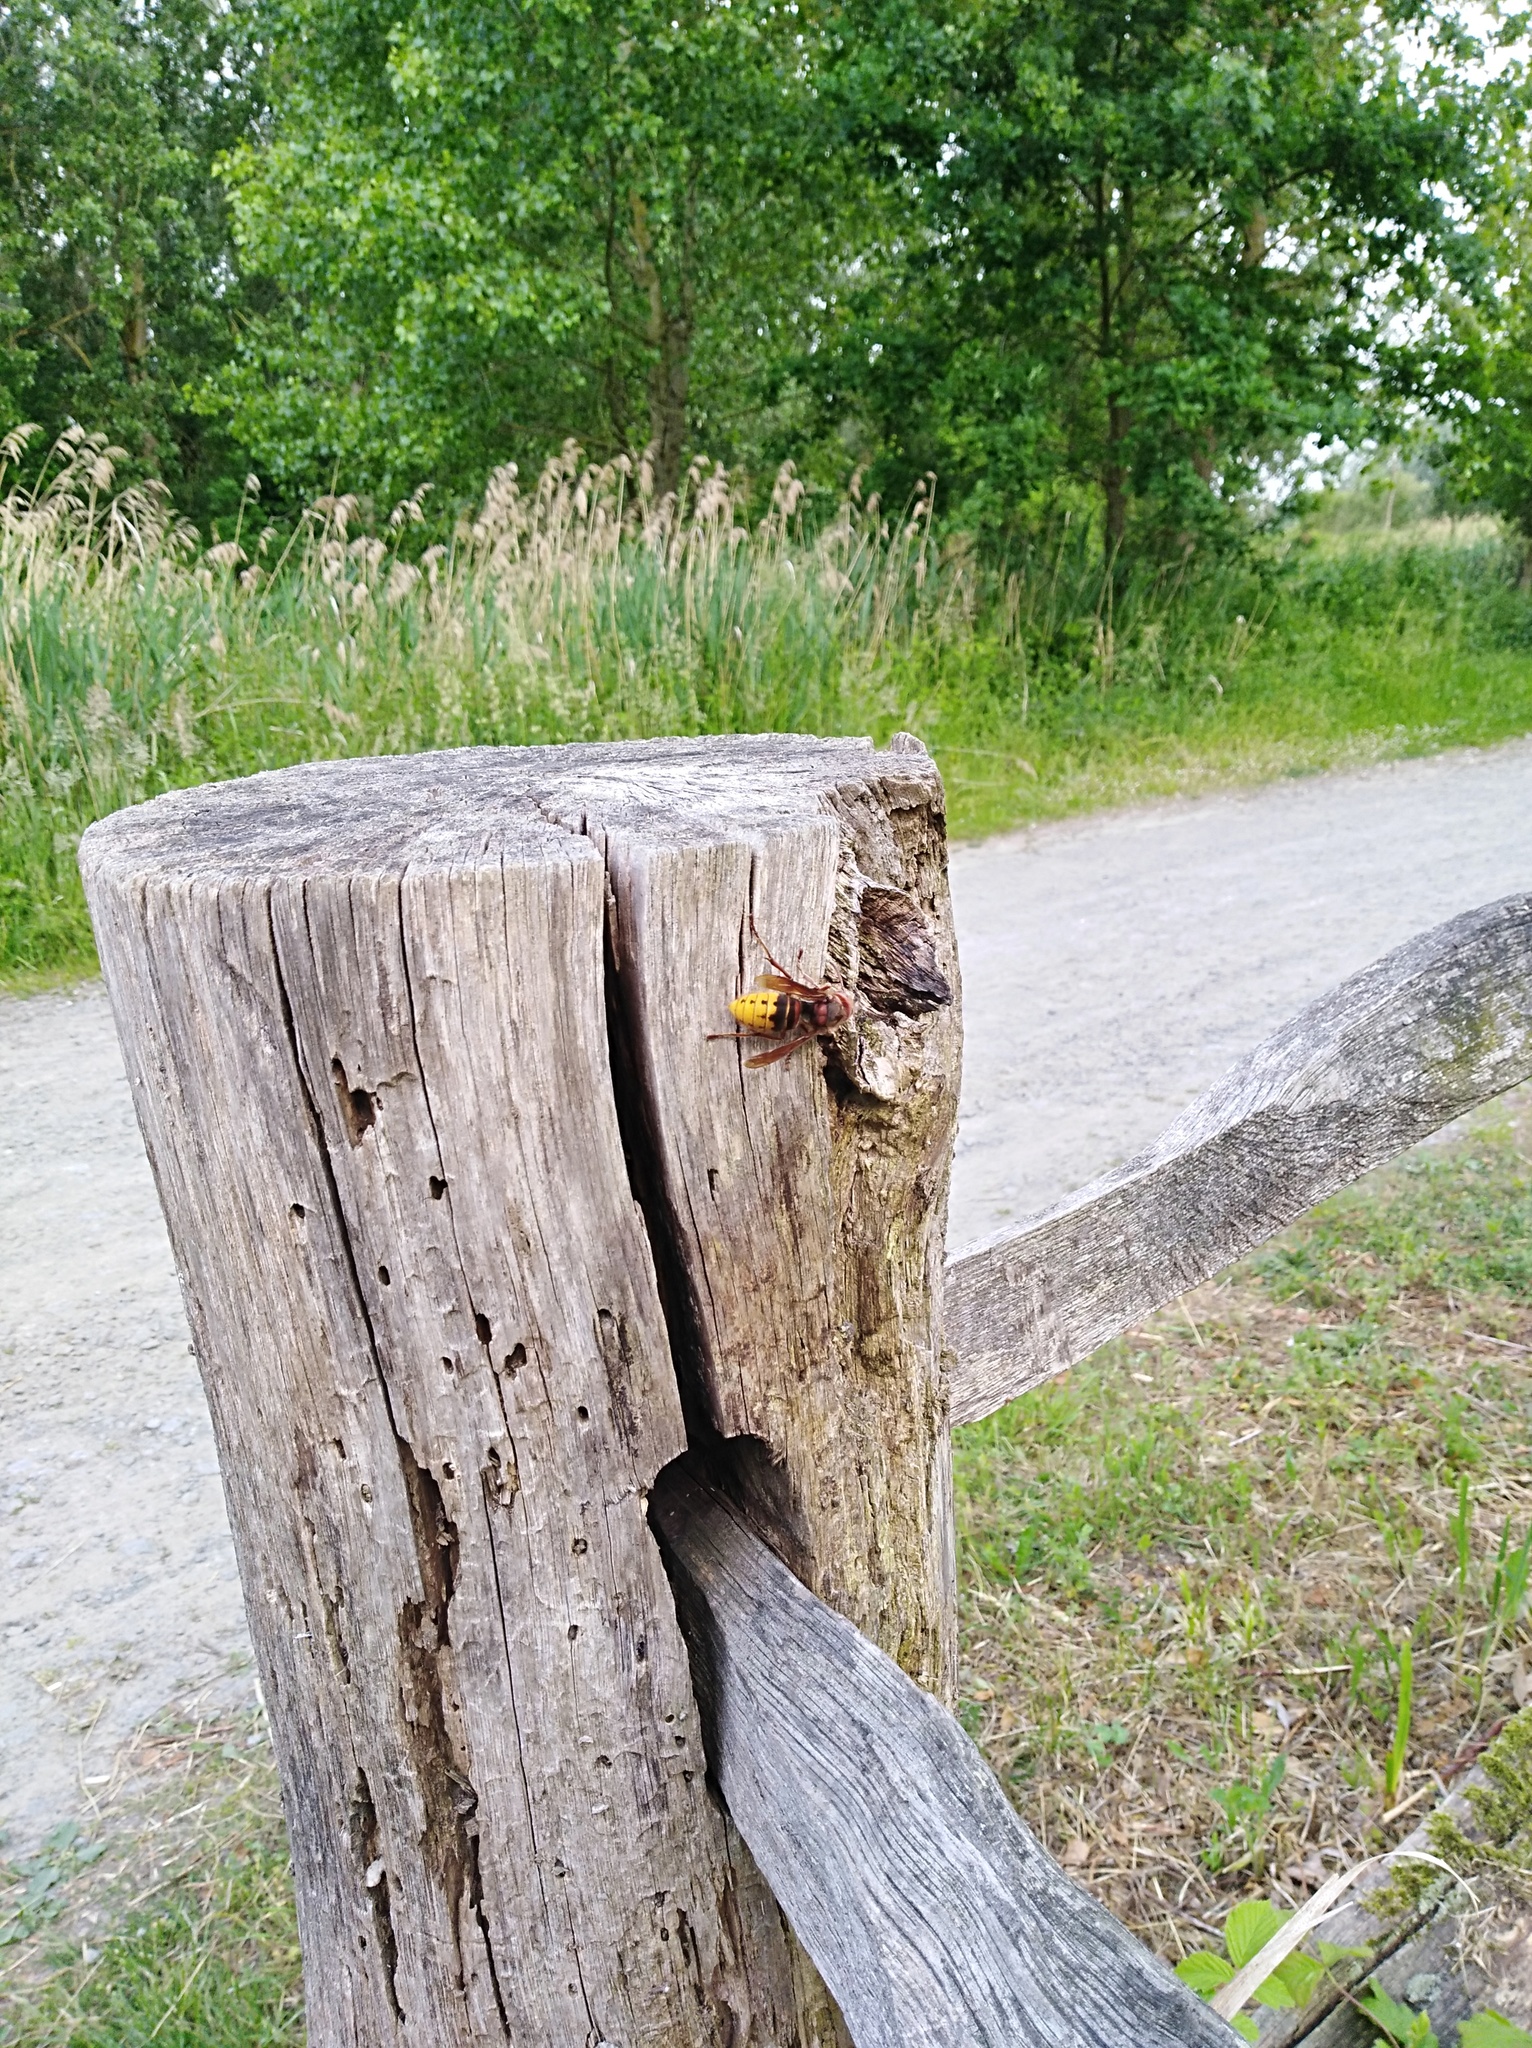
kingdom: Animalia
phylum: Arthropoda
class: Insecta
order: Hymenoptera
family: Vespidae
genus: Vespa
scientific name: Vespa crabro
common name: Hornet
